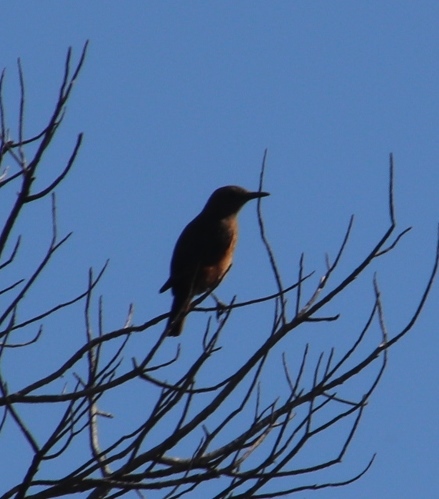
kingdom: Animalia
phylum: Chordata
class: Aves
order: Passeriformes
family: Muscicapidae
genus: Monticola
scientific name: Monticola rupestris
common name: Cape rock thrush
